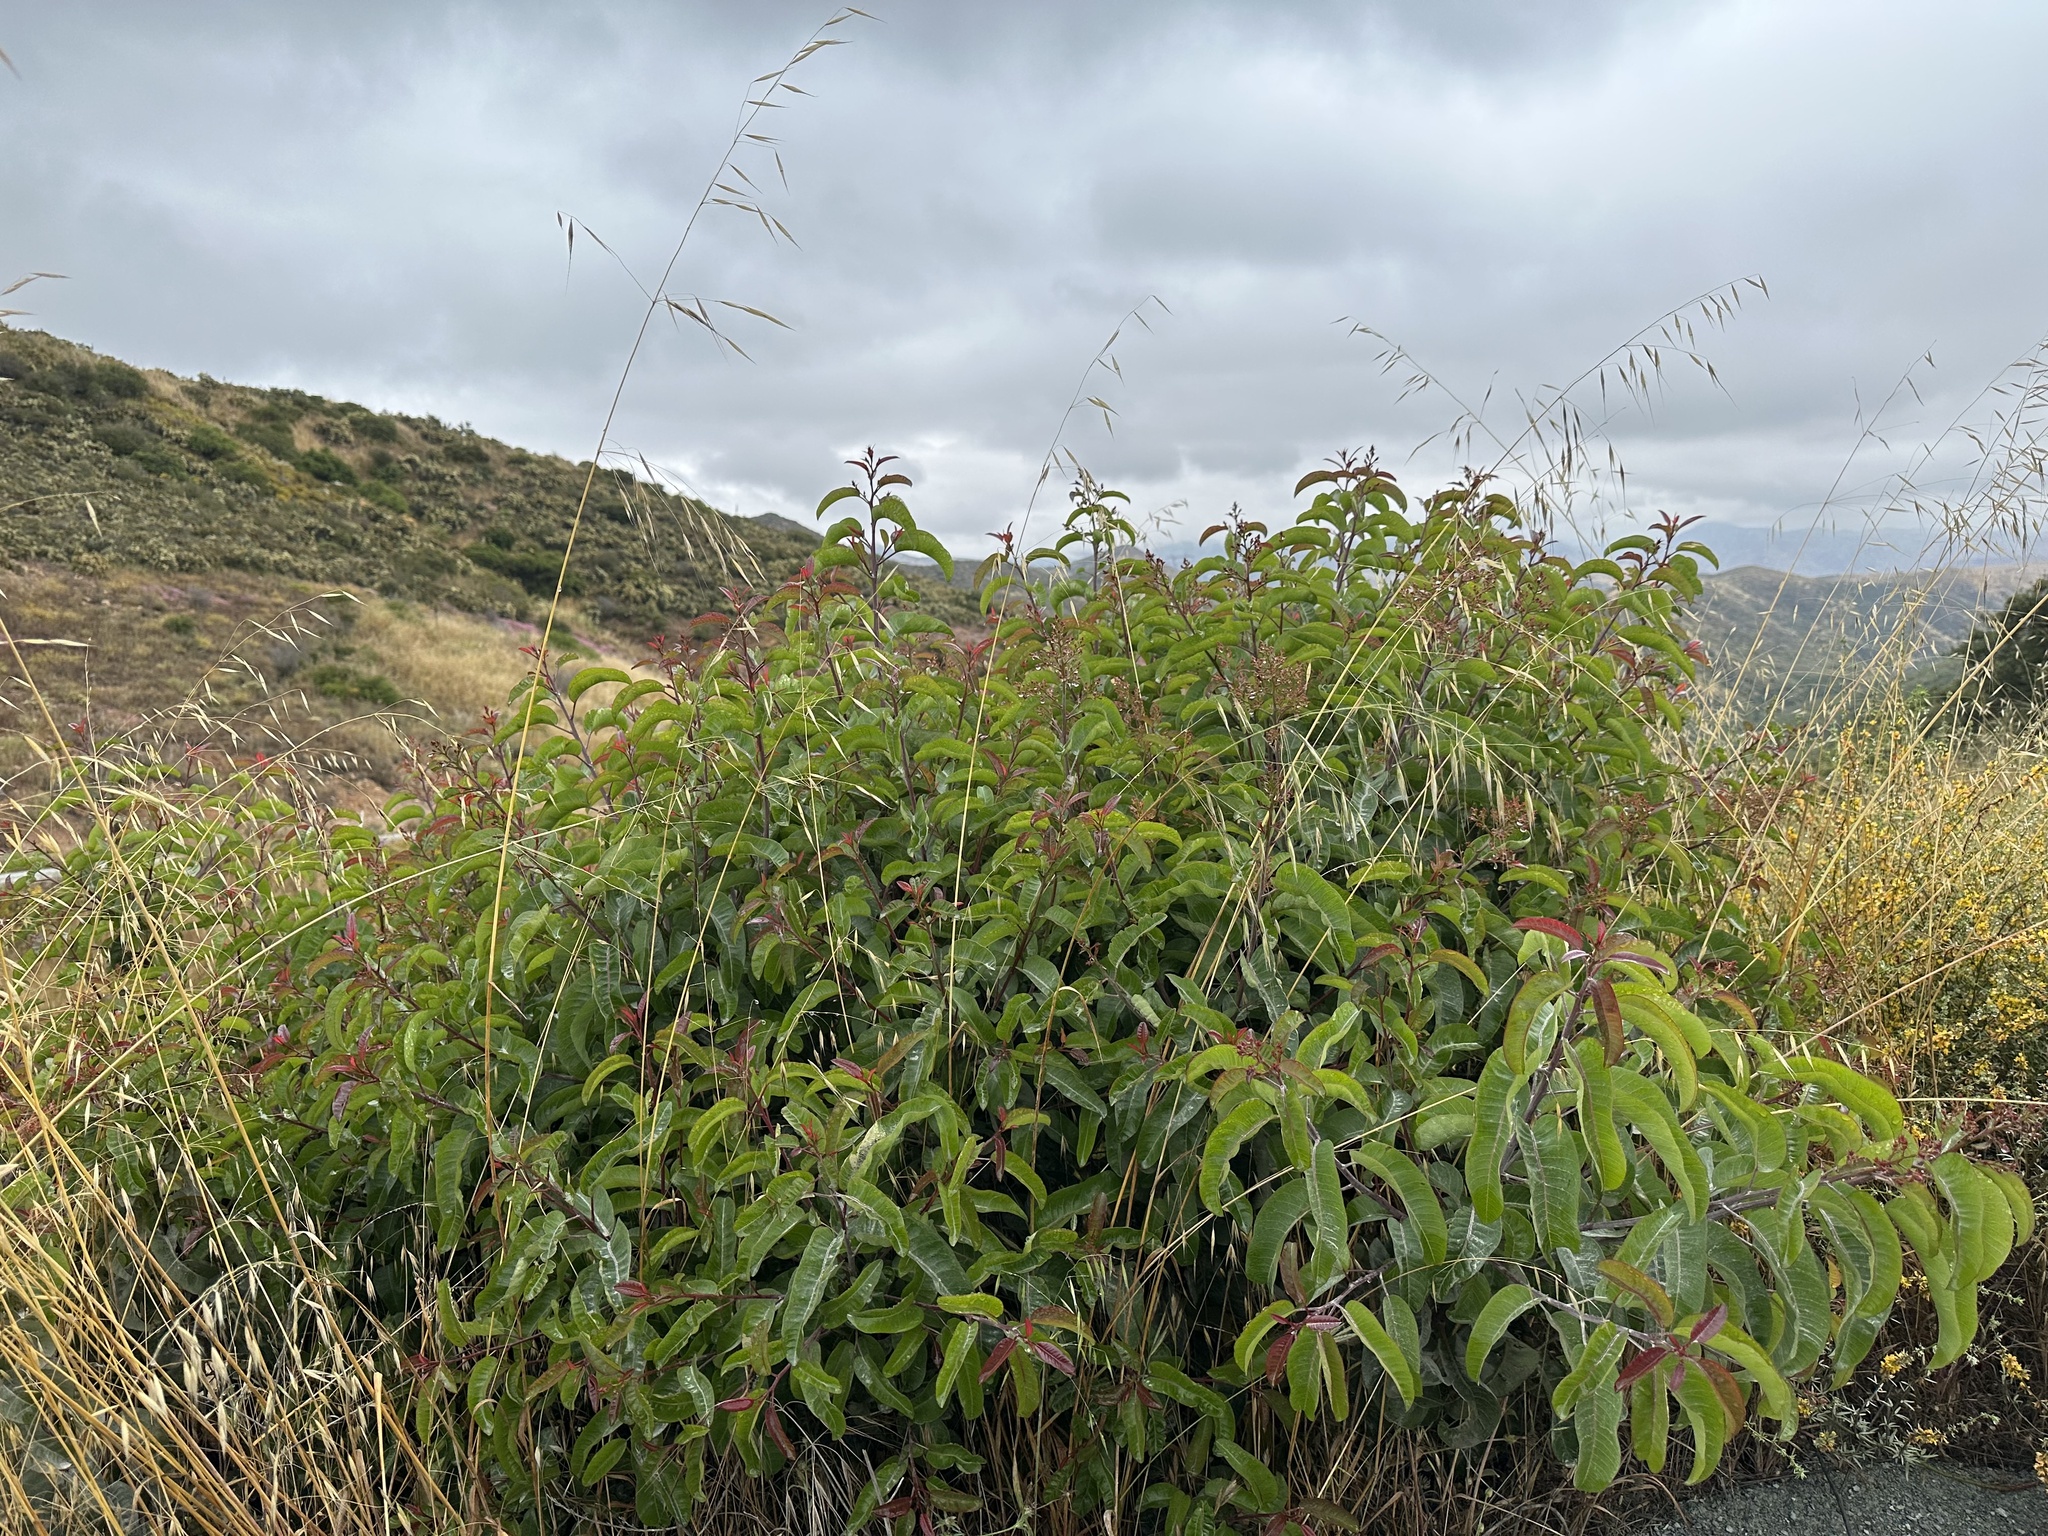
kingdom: Plantae
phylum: Tracheophyta
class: Magnoliopsida
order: Sapindales
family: Anacardiaceae
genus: Malosma
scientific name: Malosma laurina
